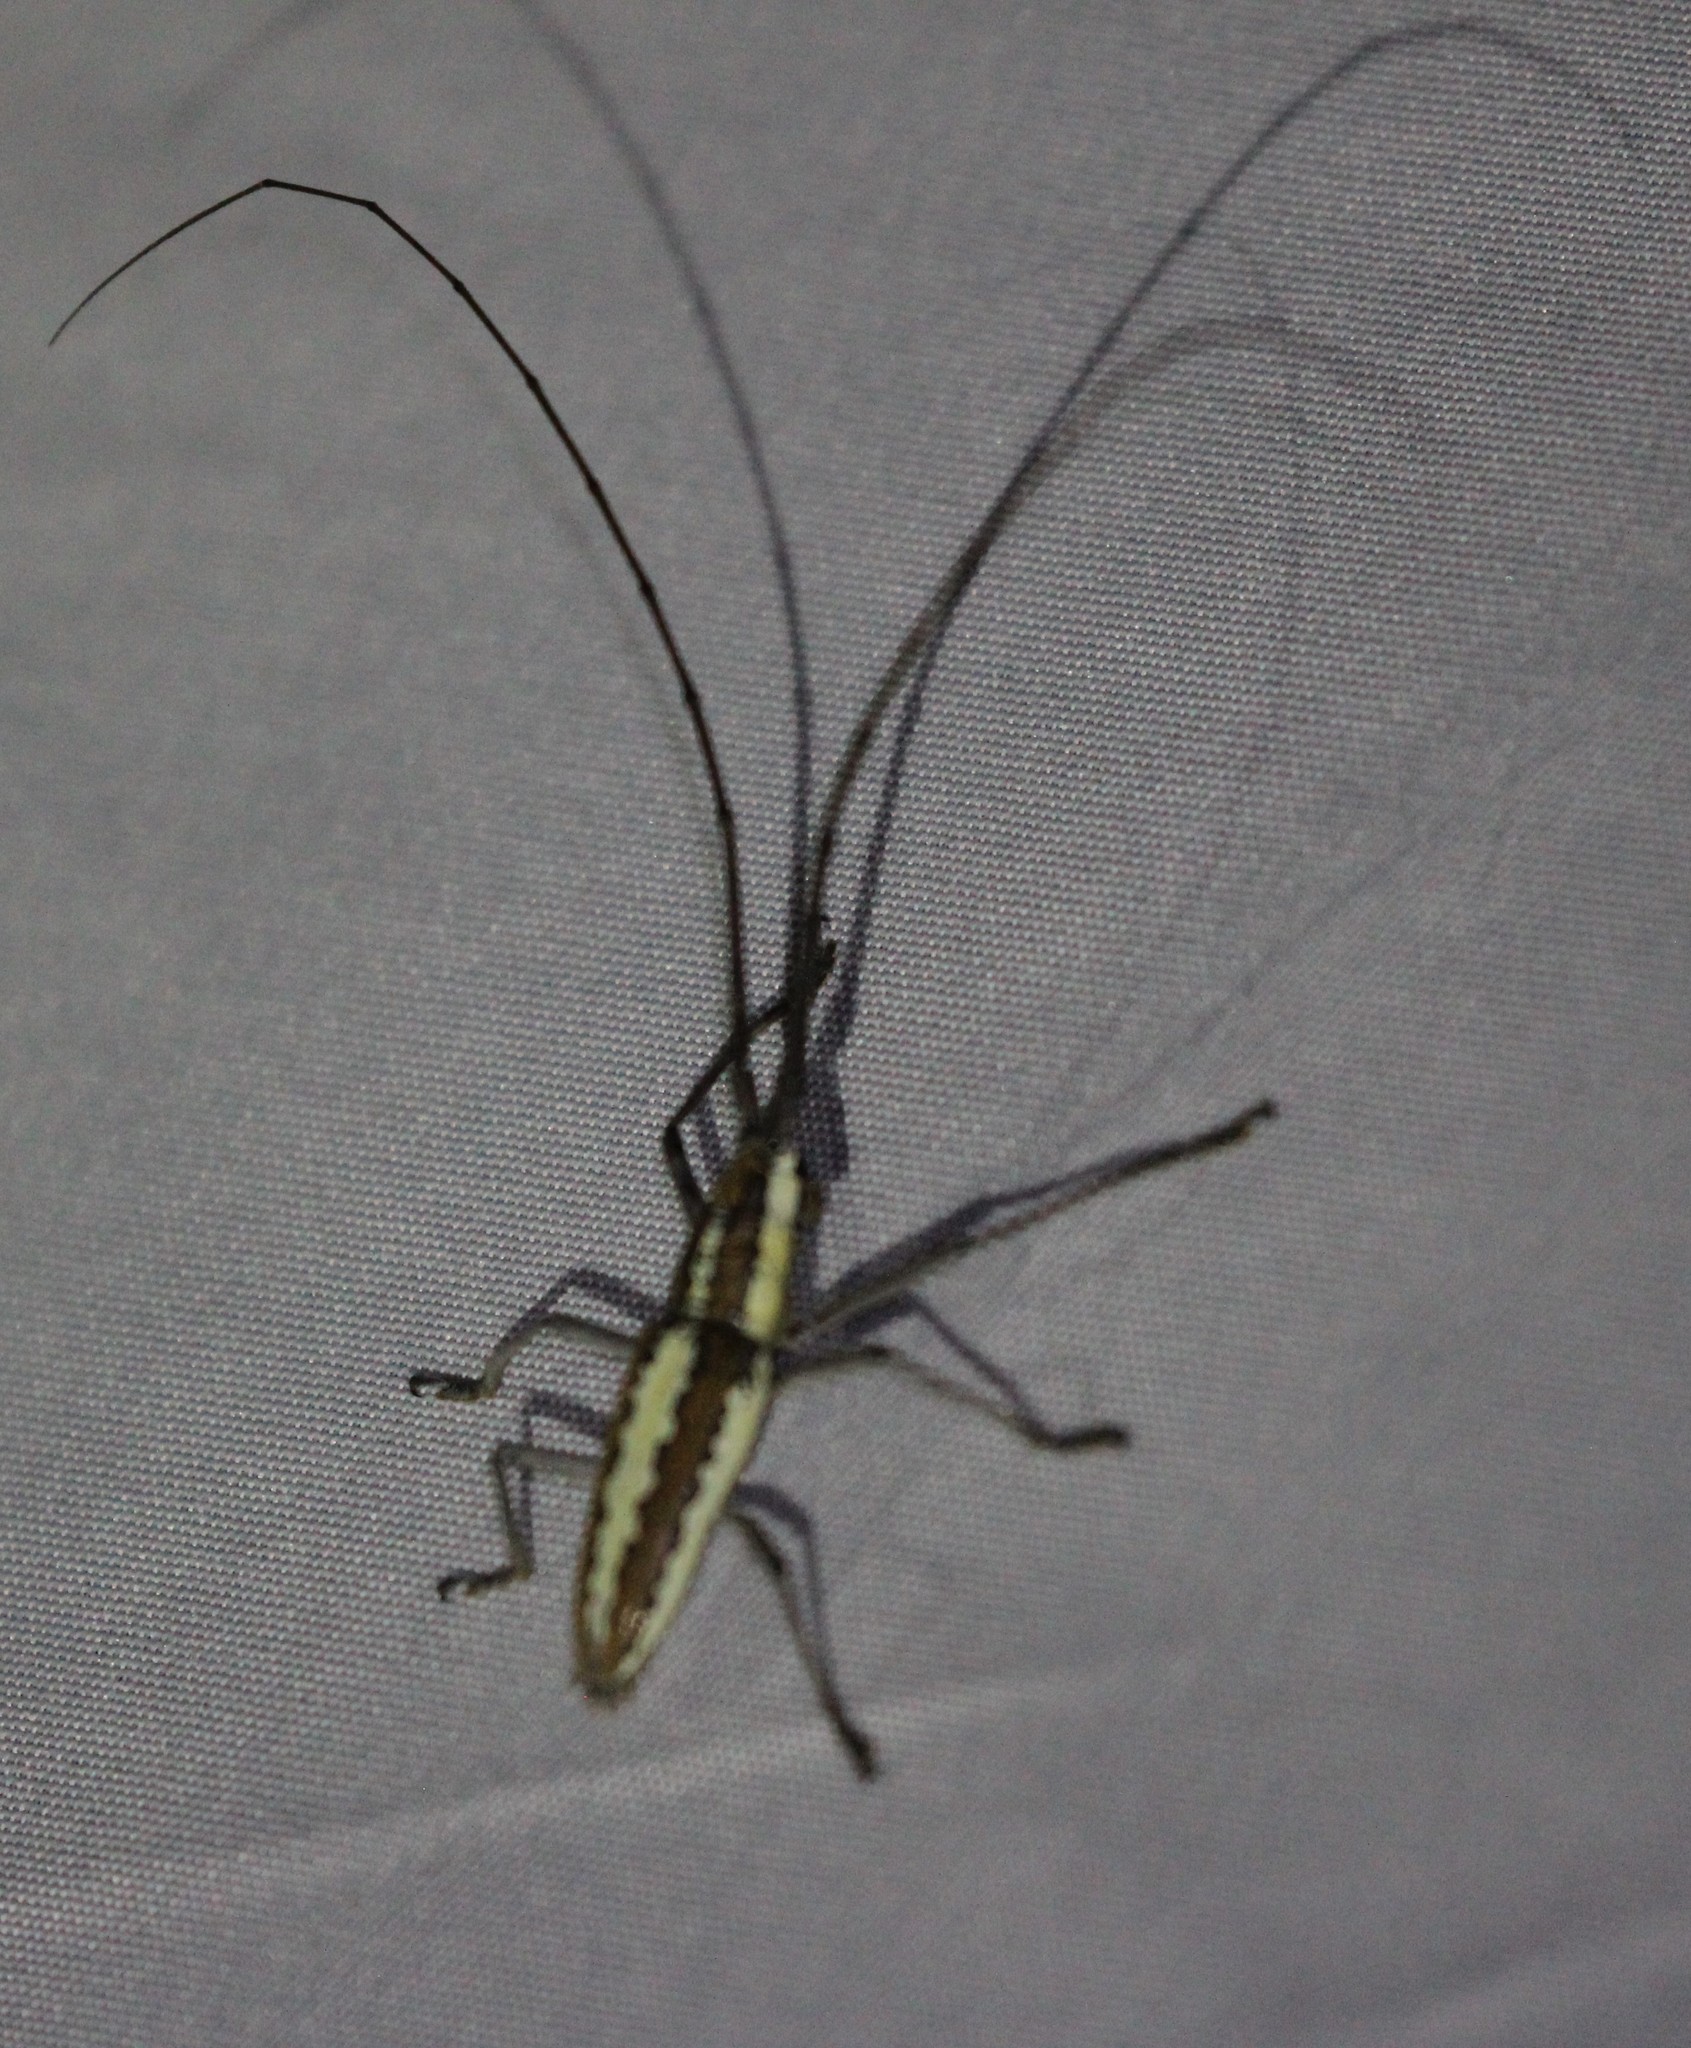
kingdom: Animalia
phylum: Arthropoda
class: Insecta
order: Coleoptera
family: Cerambycidae
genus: Neoptychodes
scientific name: Neoptychodes trilineatus
